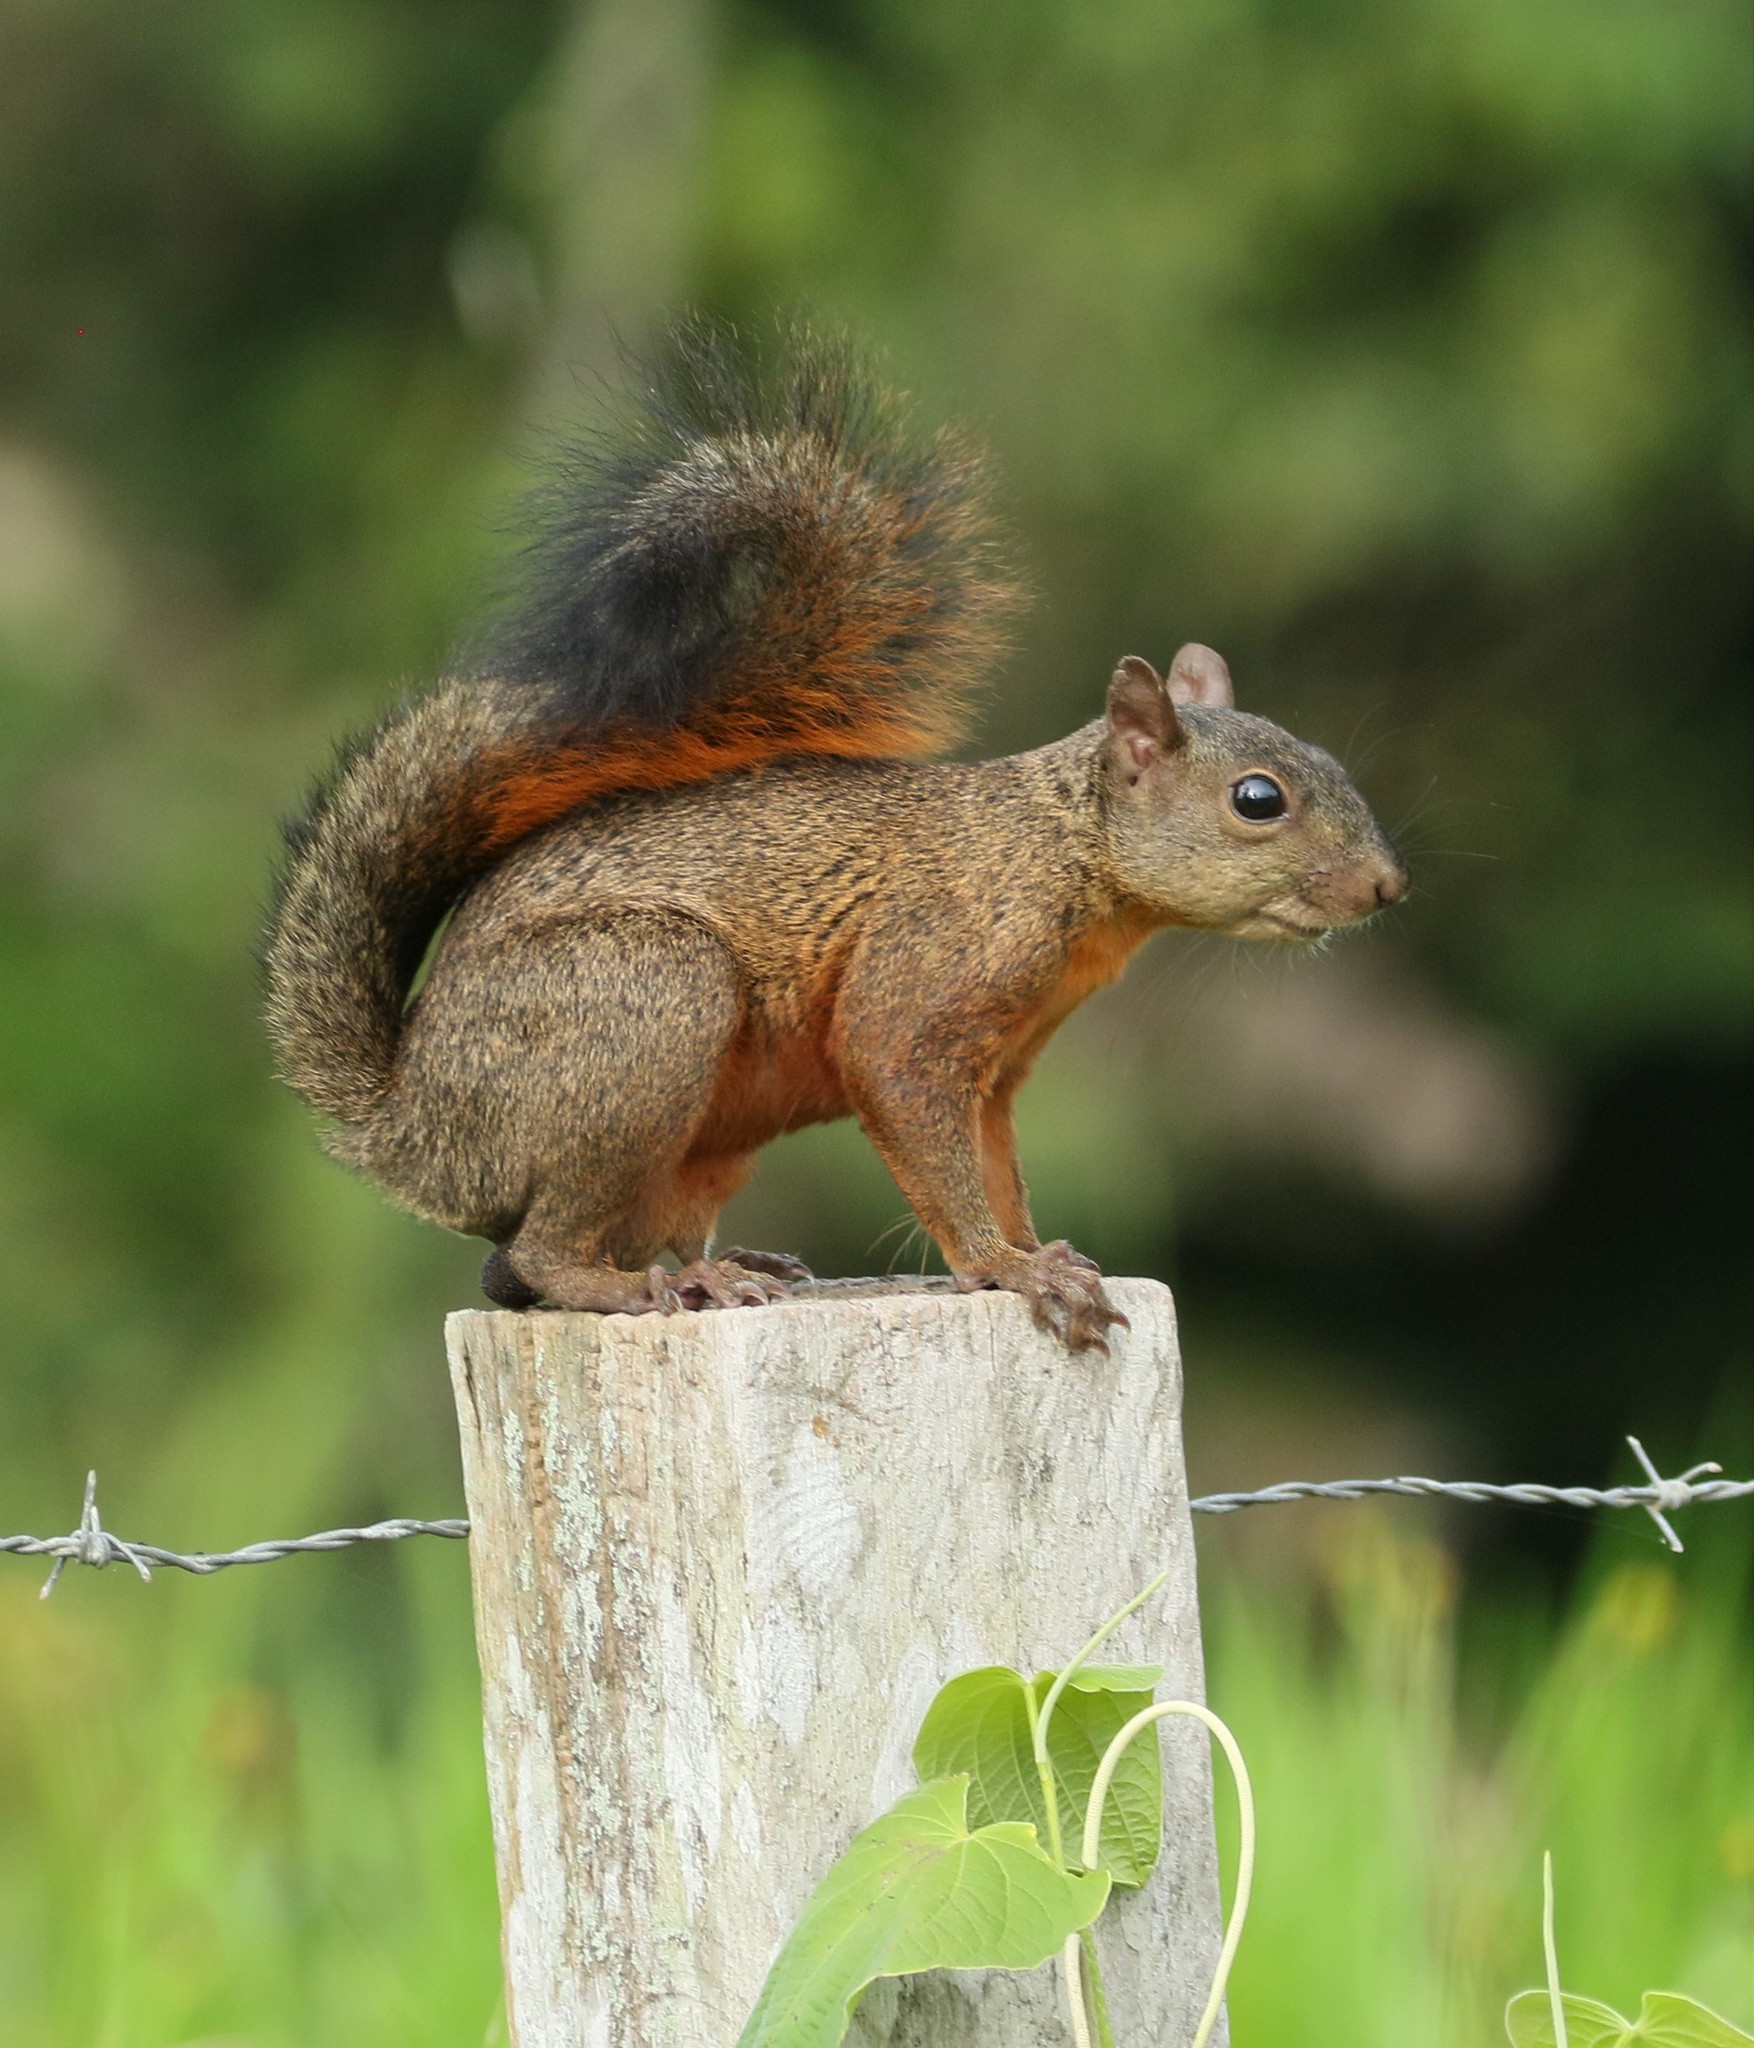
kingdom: Animalia
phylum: Chordata
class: Mammalia
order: Rodentia
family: Sciuridae
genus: Sciurus
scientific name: Sciurus granatensis
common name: Red-tailed squirrel
